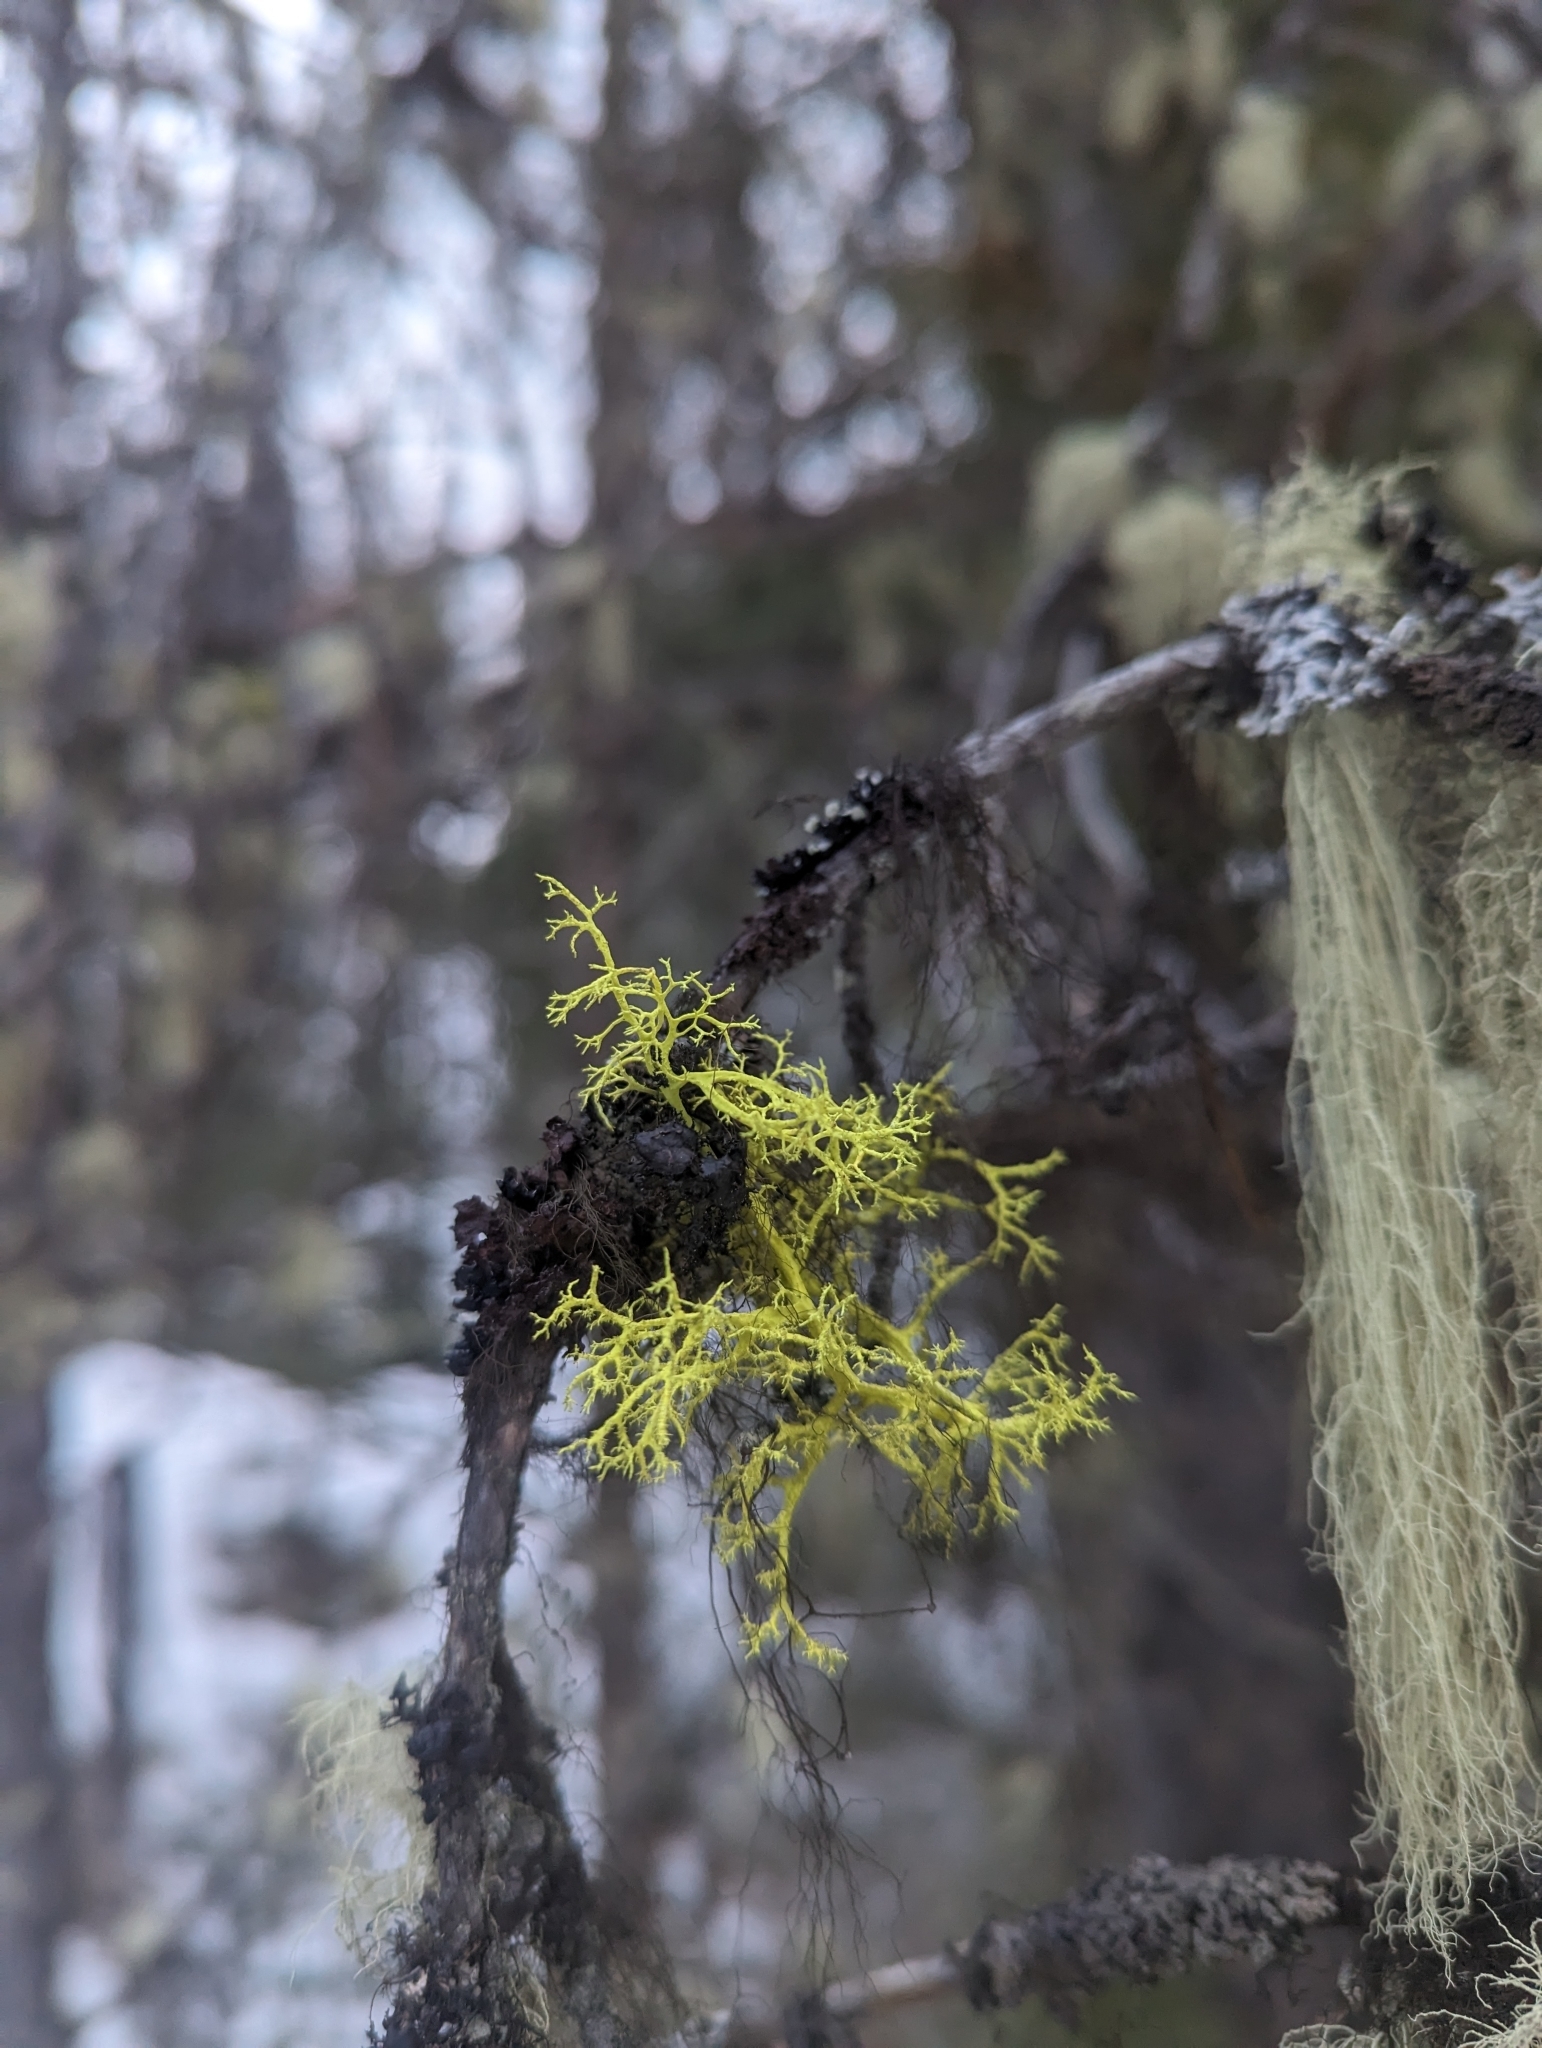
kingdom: Fungi
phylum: Ascomycota
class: Lecanoromycetes
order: Lecanorales
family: Parmeliaceae
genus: Letharia
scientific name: Letharia vulpina
